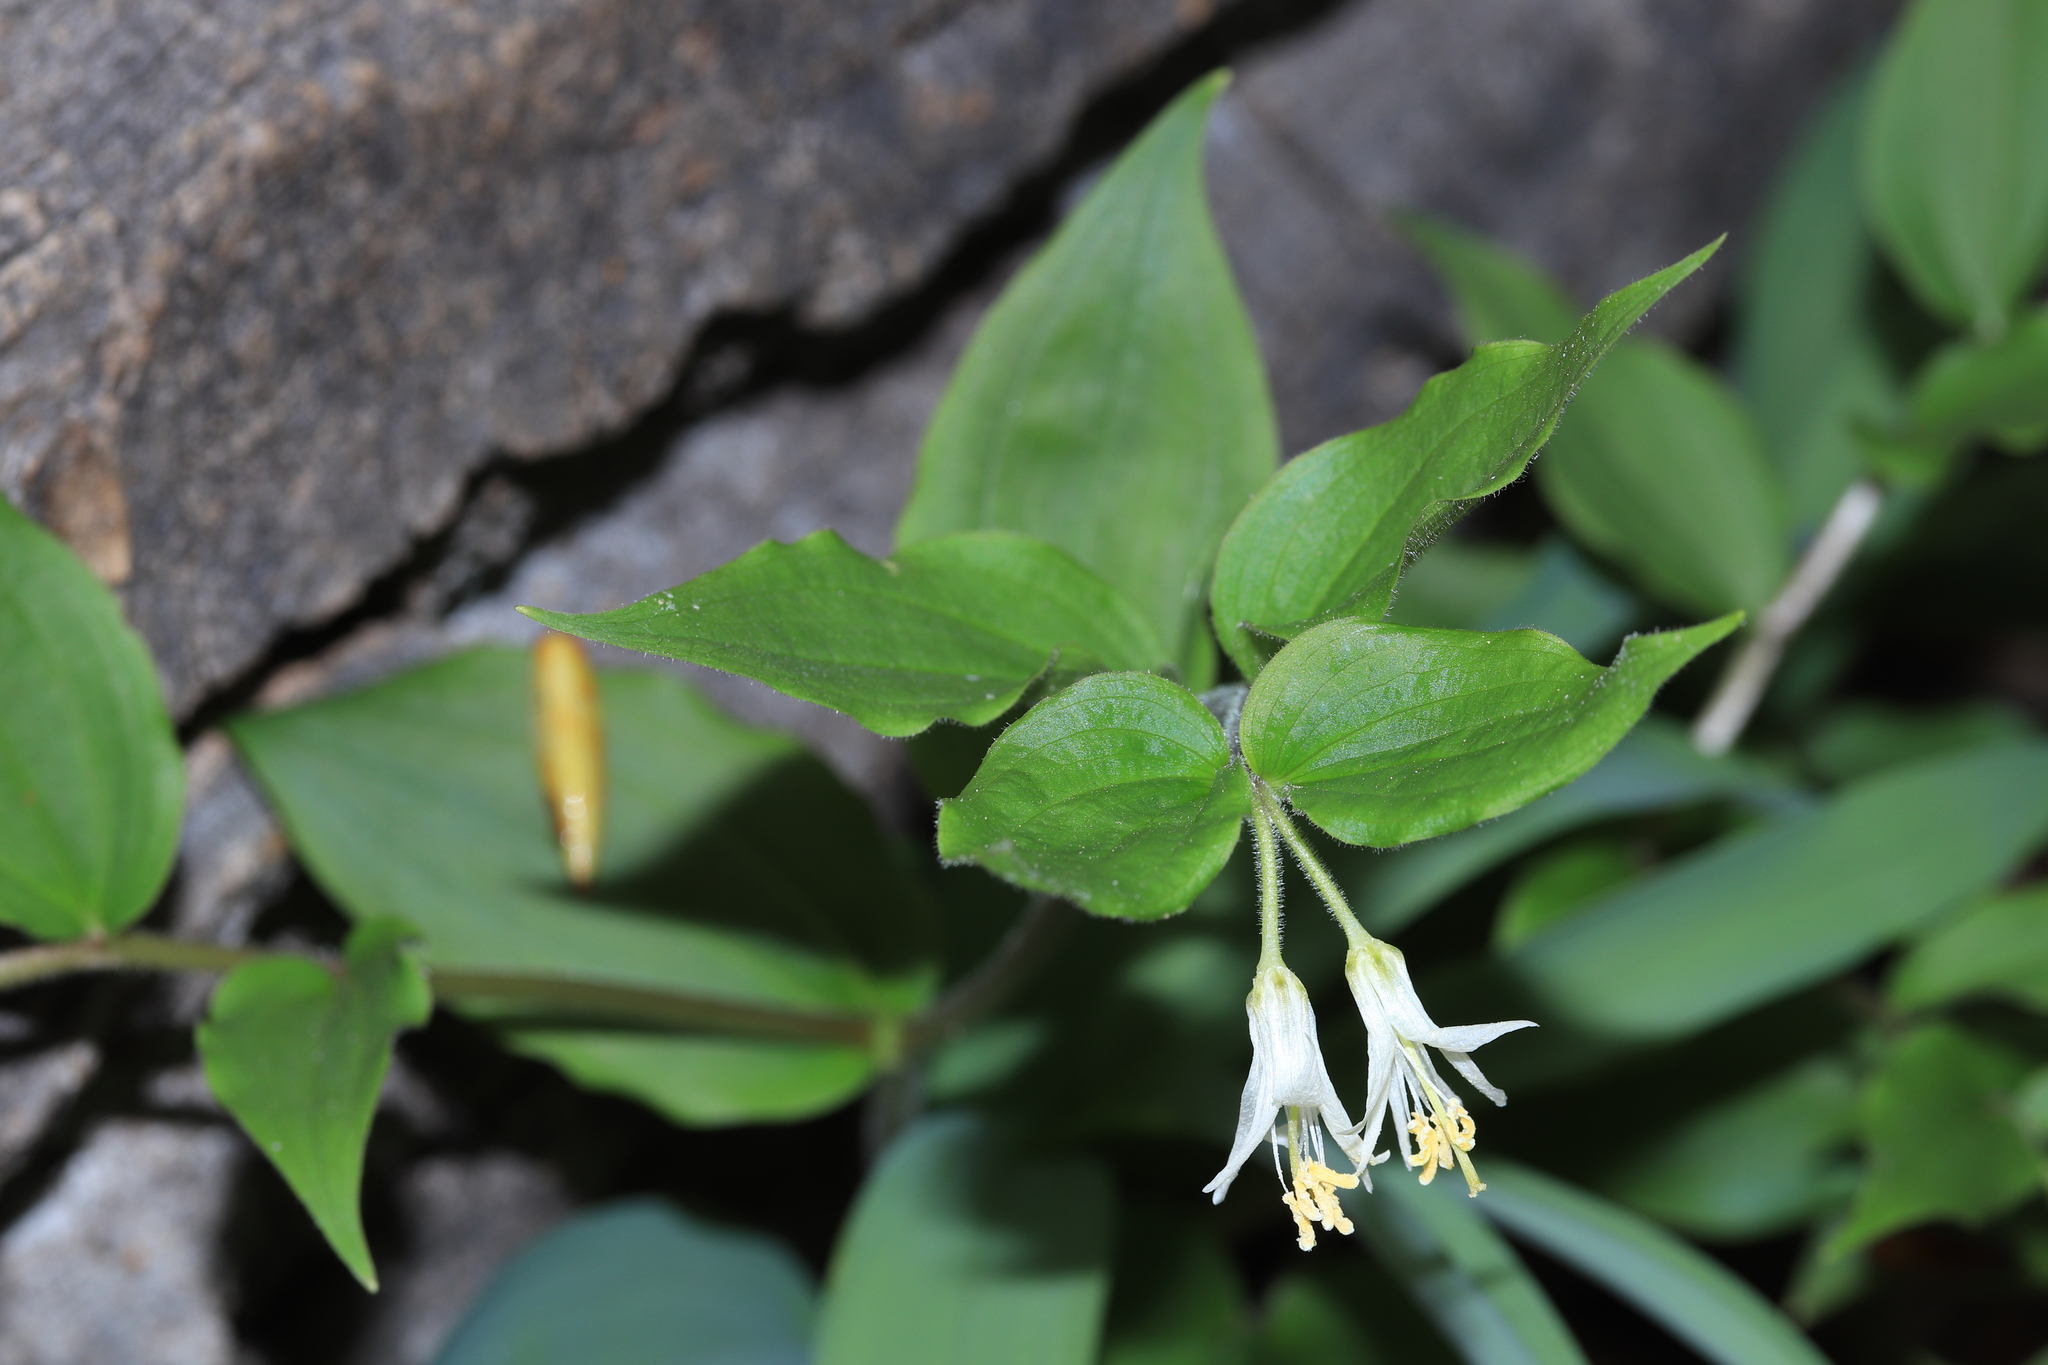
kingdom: Plantae
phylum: Tracheophyta
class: Liliopsida
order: Liliales
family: Liliaceae
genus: Prosartes
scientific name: Prosartes trachycarpa
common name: Rough-fruit fairy-bells
